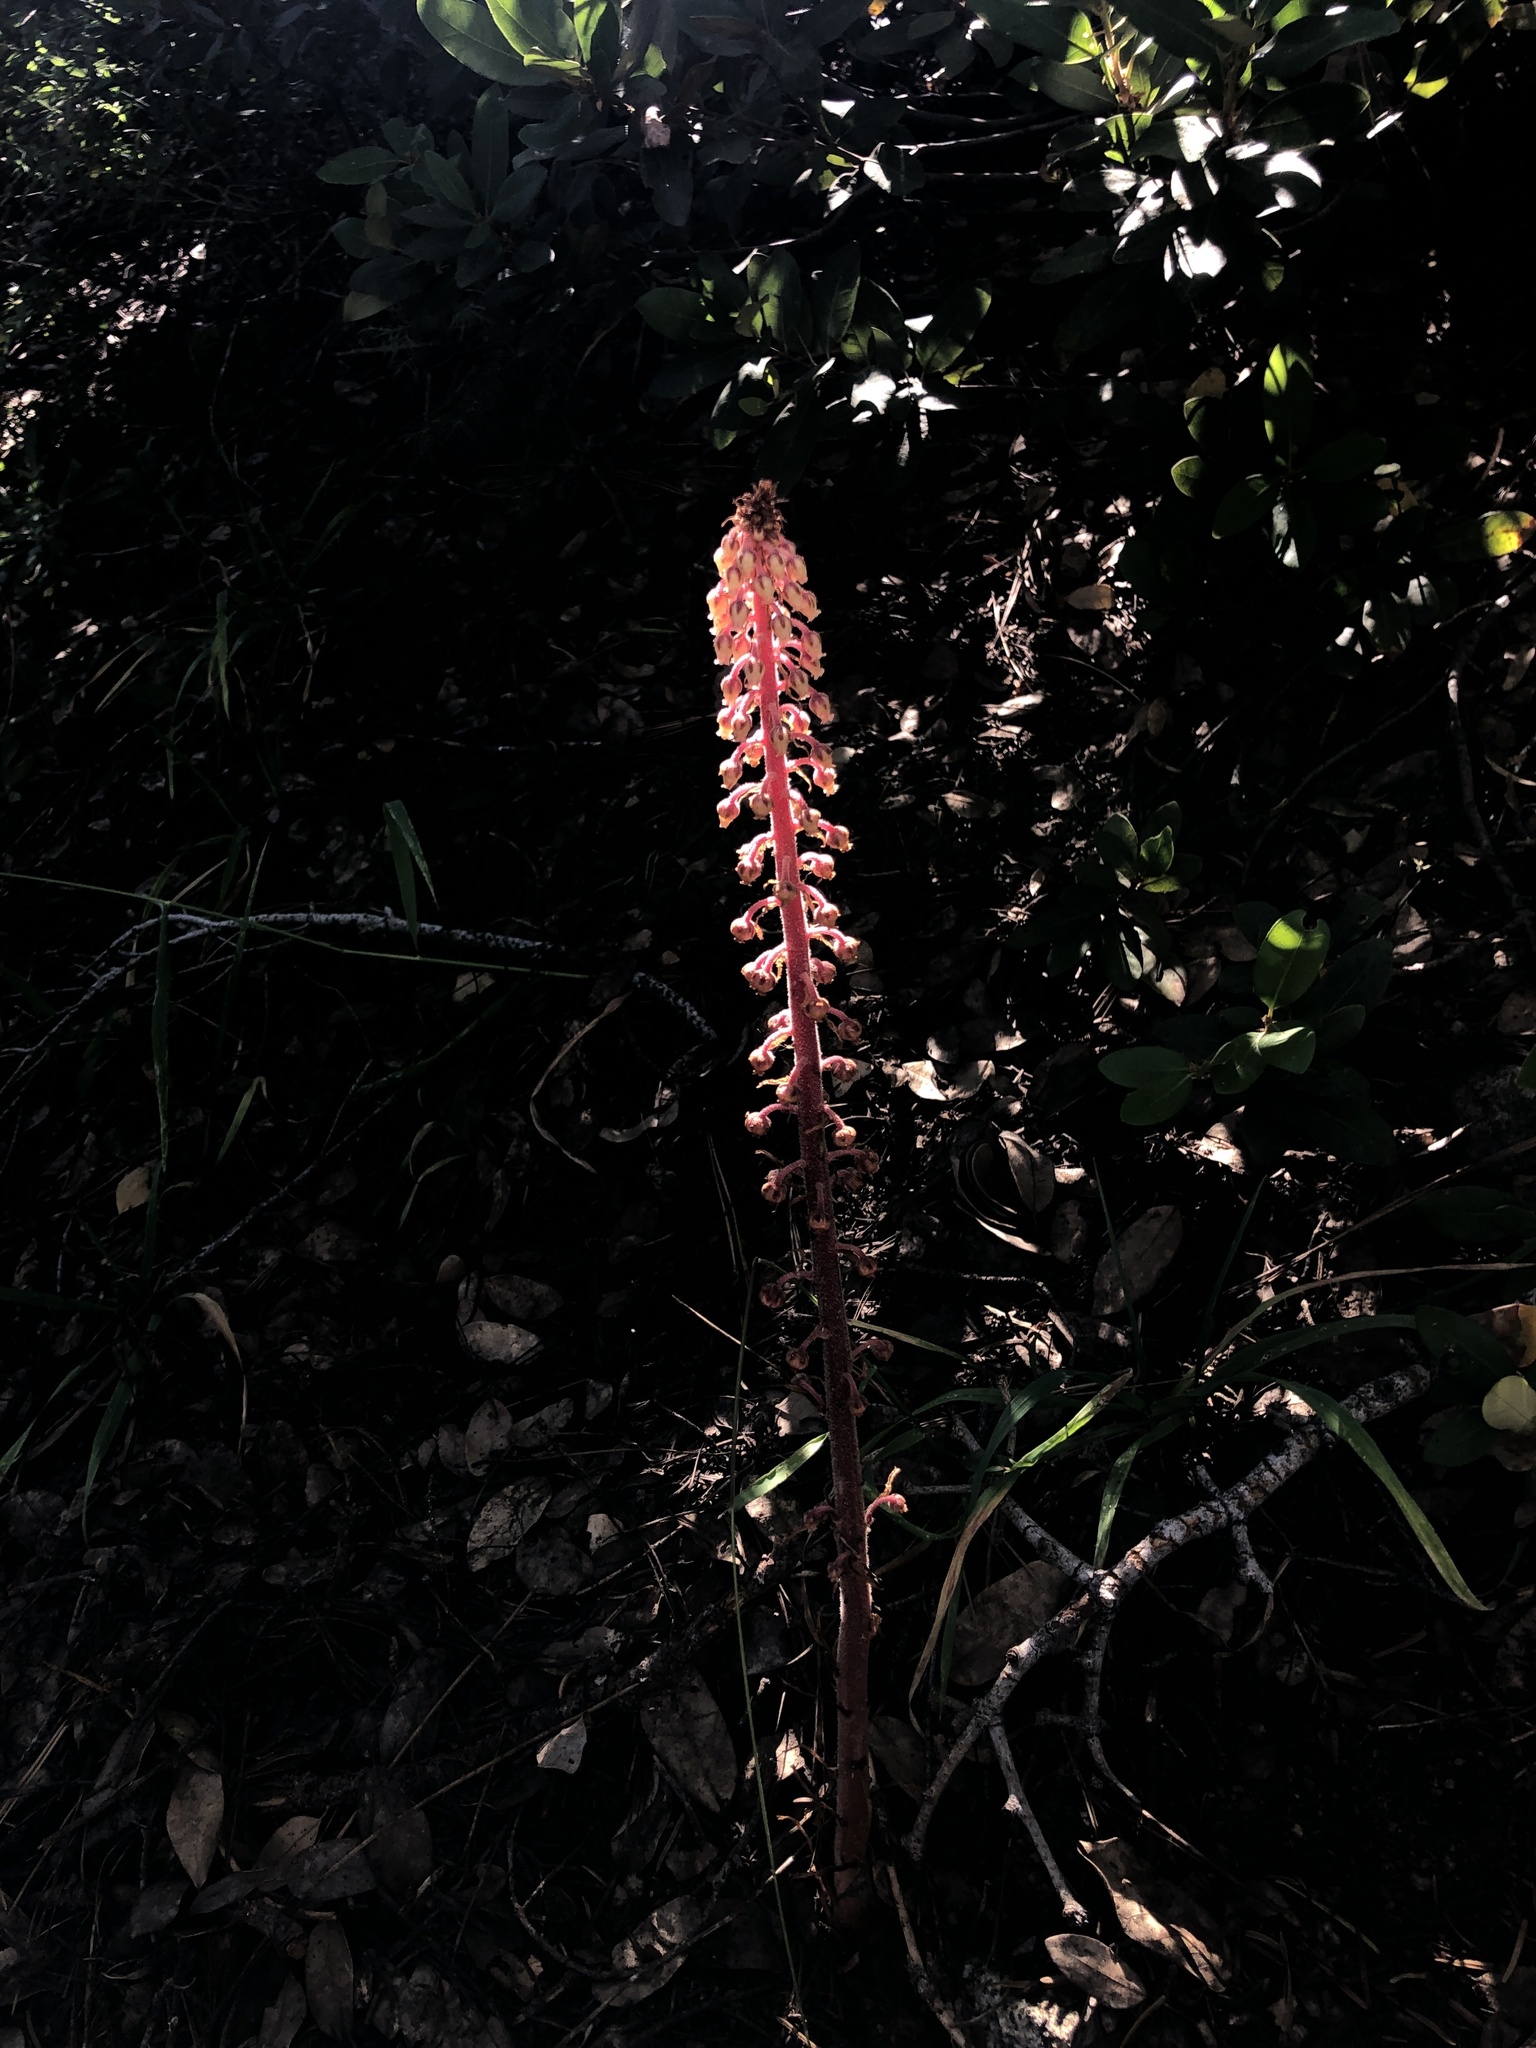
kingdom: Plantae
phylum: Tracheophyta
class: Magnoliopsida
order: Ericales
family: Ericaceae
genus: Pterospora
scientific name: Pterospora andromedea
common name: Giant bird's-nest
